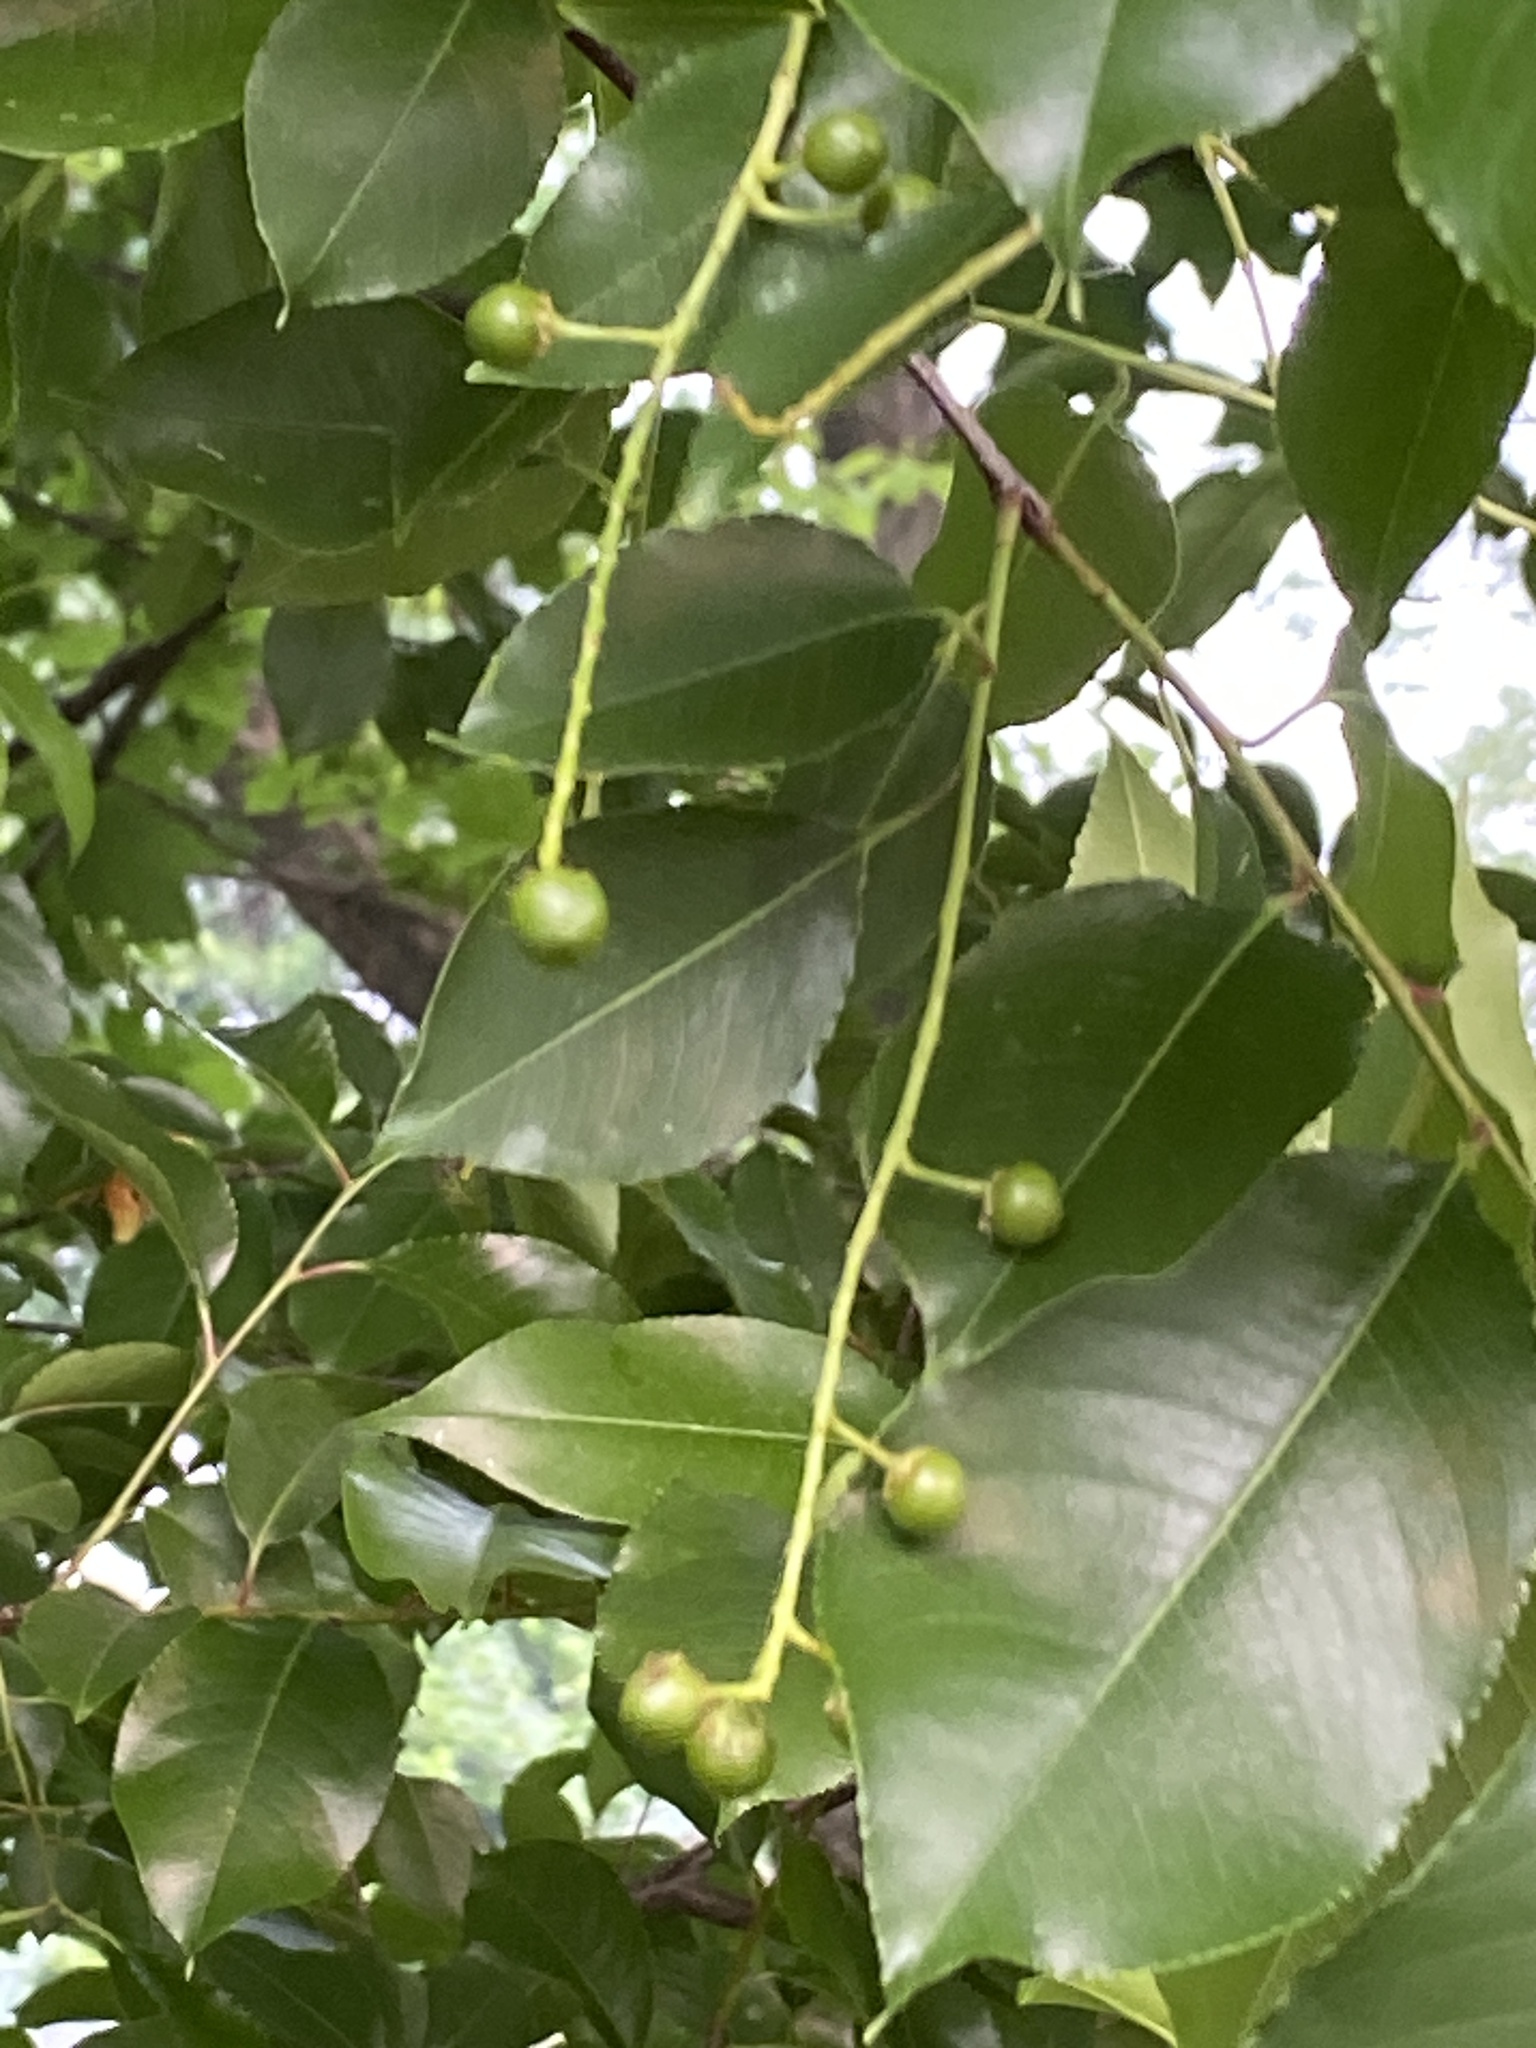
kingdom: Plantae
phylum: Tracheophyta
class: Magnoliopsida
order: Rosales
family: Rosaceae
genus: Prunus
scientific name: Prunus serotina
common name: Black cherry
